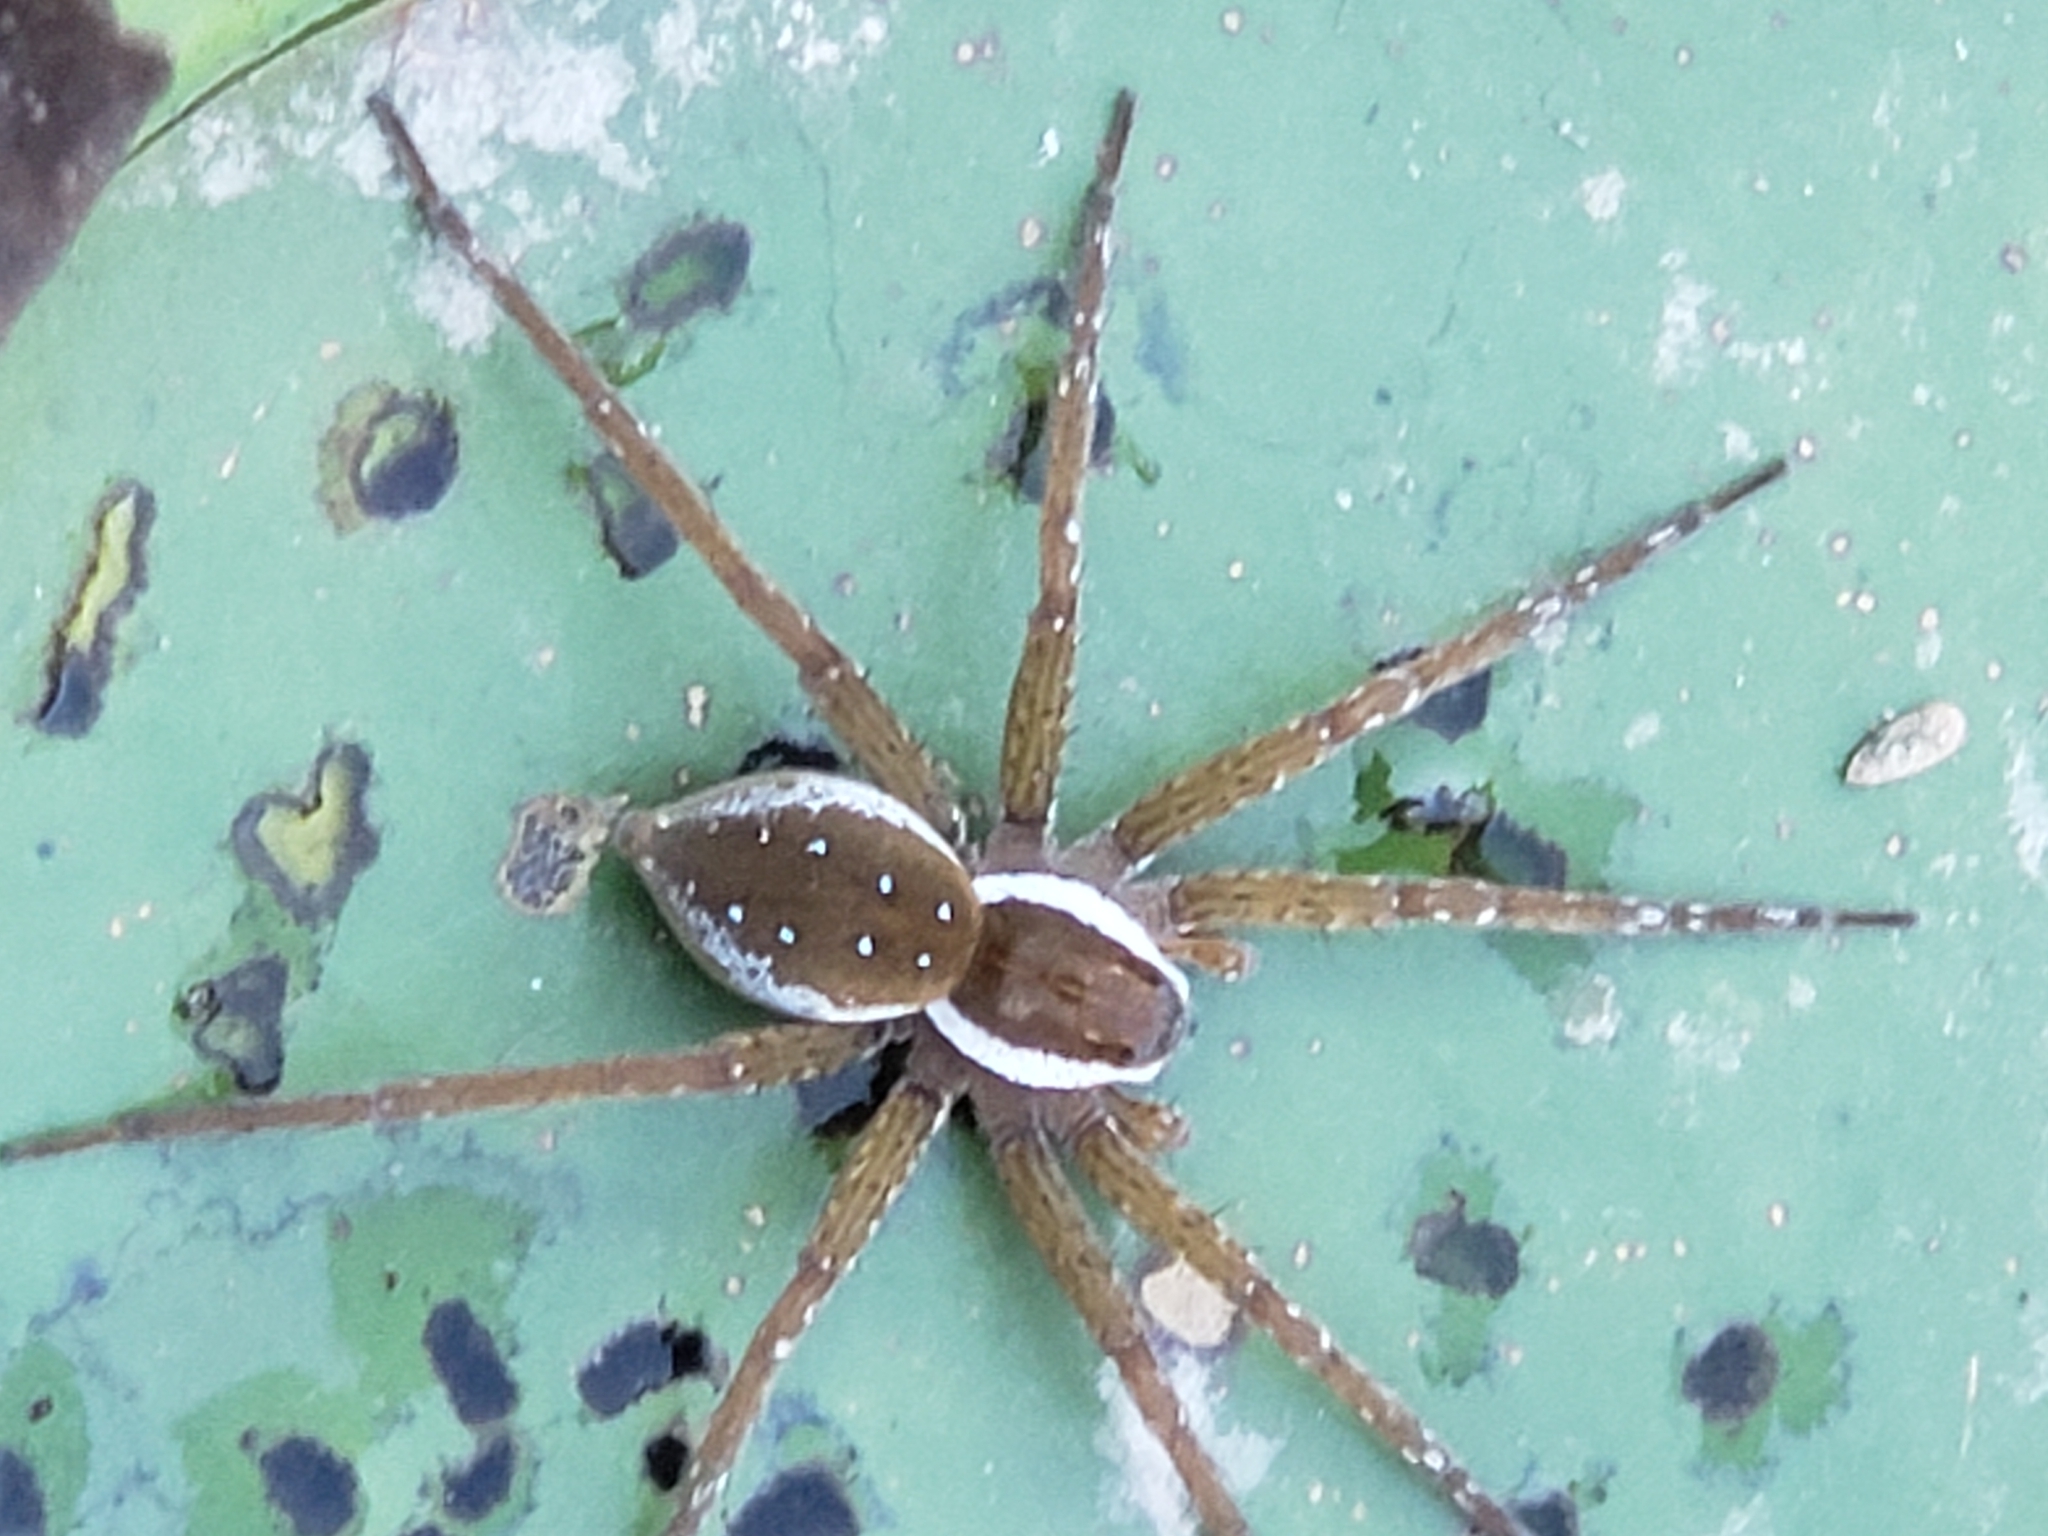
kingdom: Animalia
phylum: Arthropoda
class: Arachnida
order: Araneae
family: Pisauridae
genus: Dolomedes
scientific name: Dolomedes triton
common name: Six-spotted fishing spider
